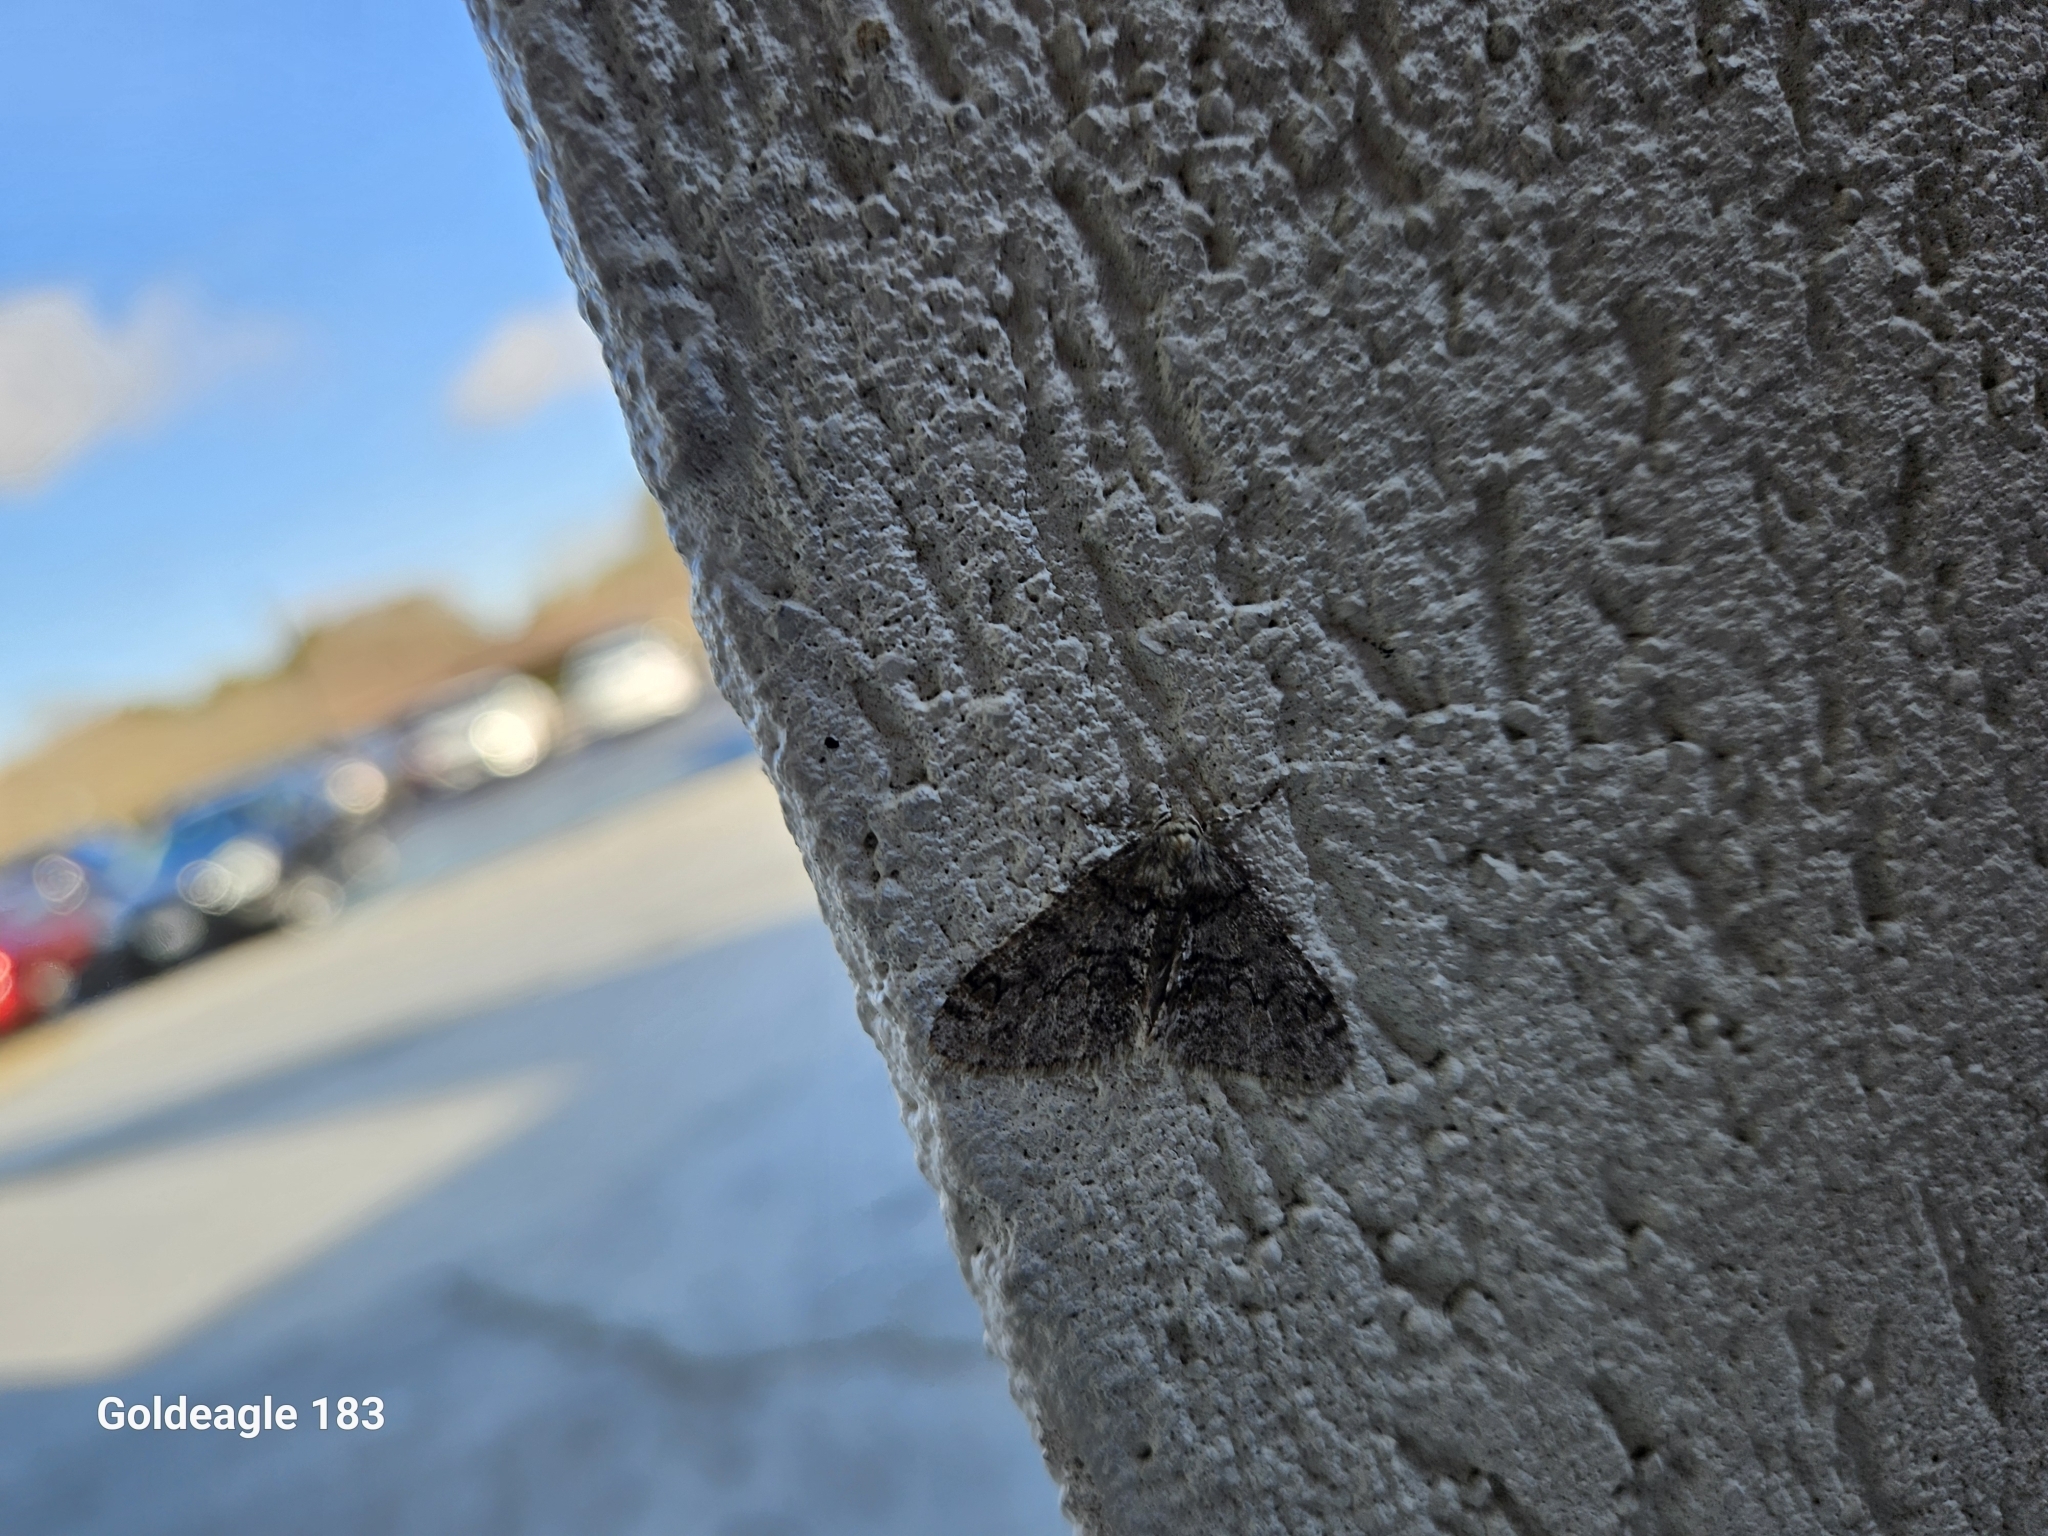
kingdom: Animalia
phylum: Arthropoda
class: Insecta
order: Lepidoptera
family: Geometridae
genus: Phigalia
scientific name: Phigalia denticulata
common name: Toothed phigalia
